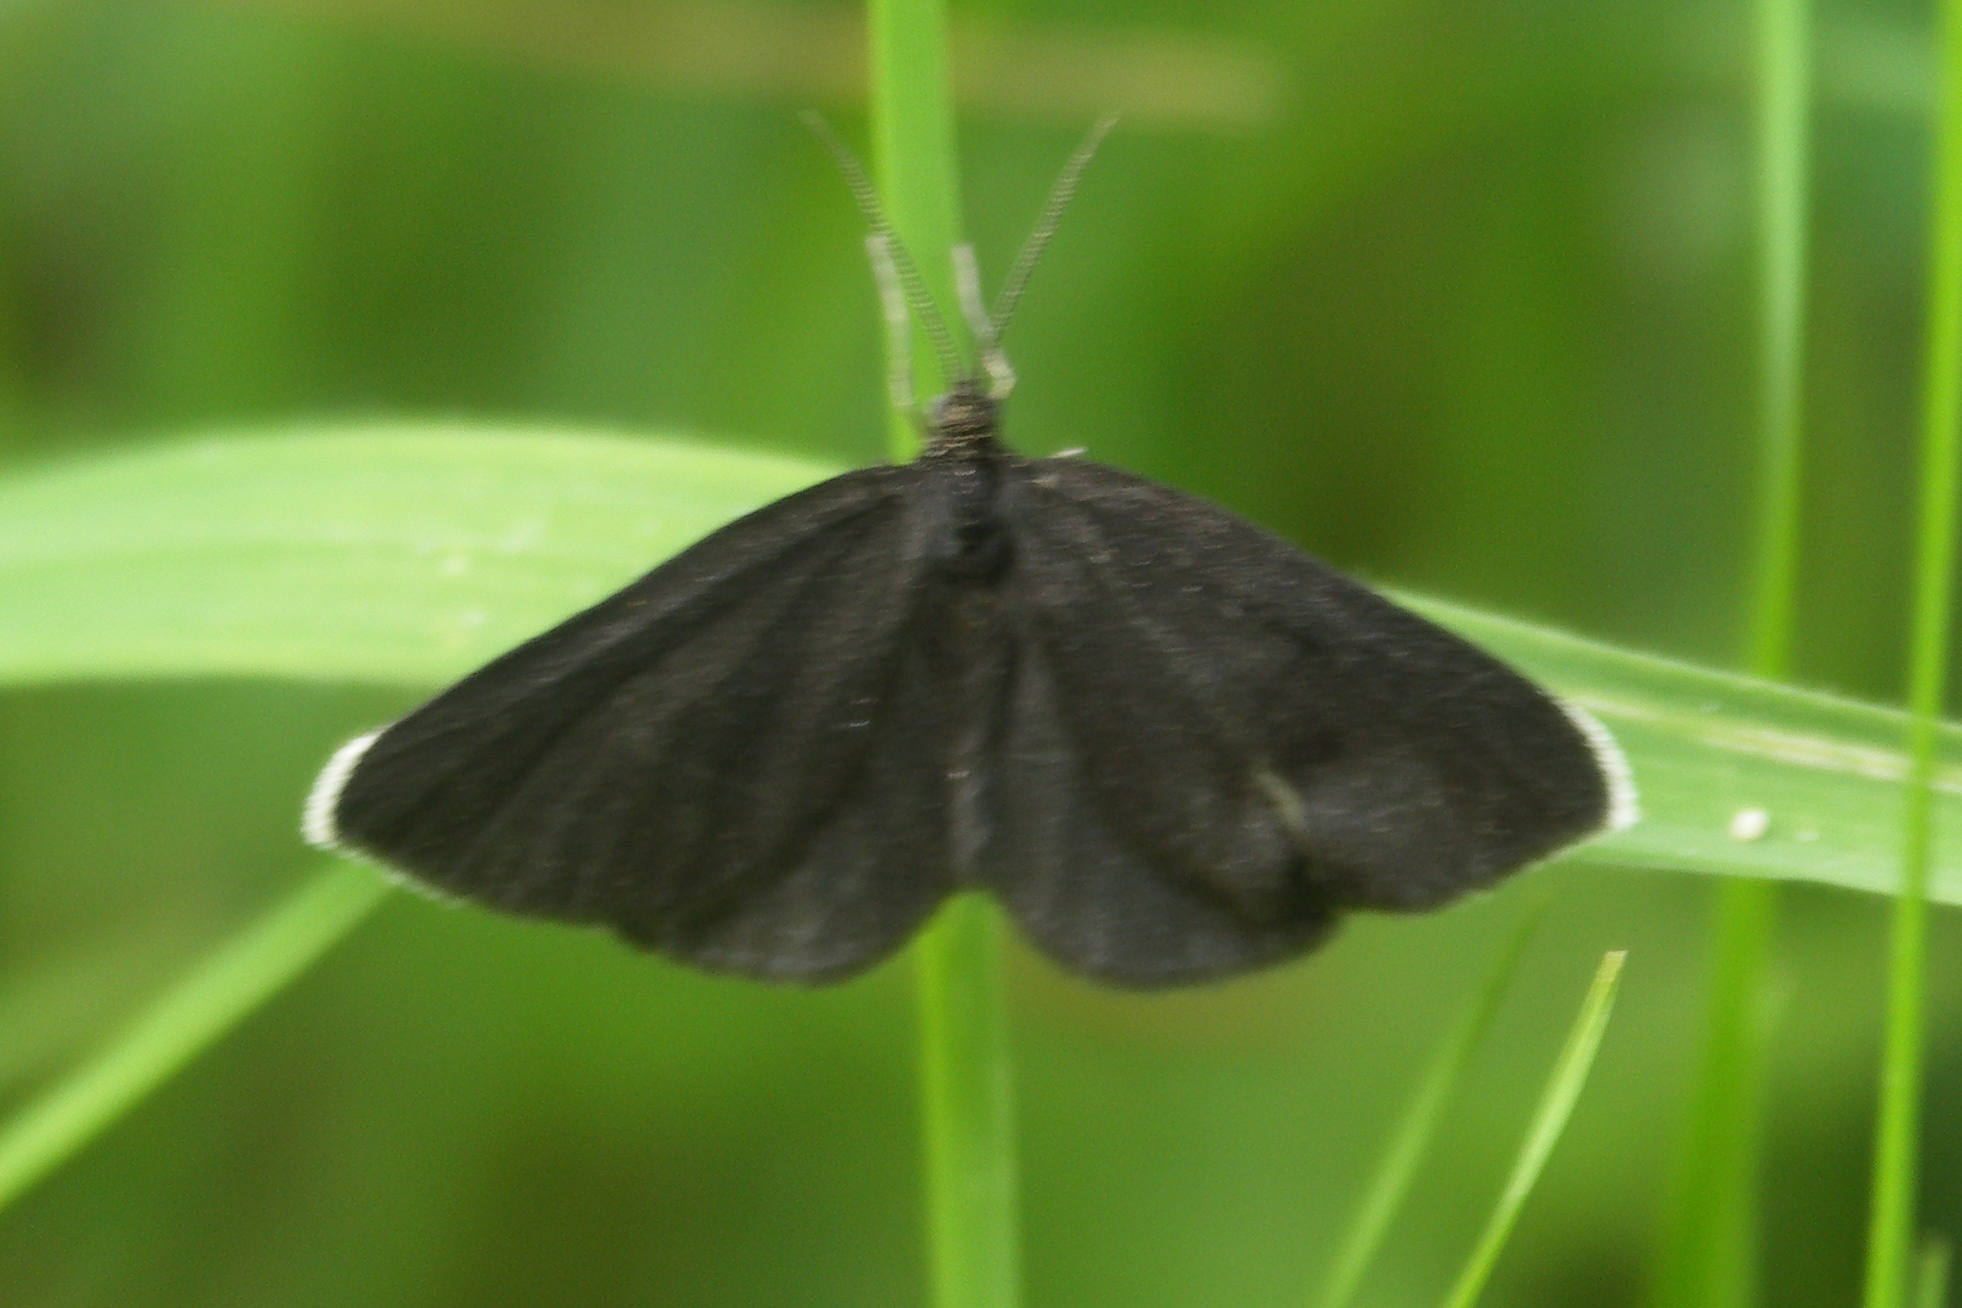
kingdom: Animalia
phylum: Arthropoda
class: Insecta
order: Lepidoptera
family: Geometridae
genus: Odezia
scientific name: Odezia atrata
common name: Chimney sweeper
